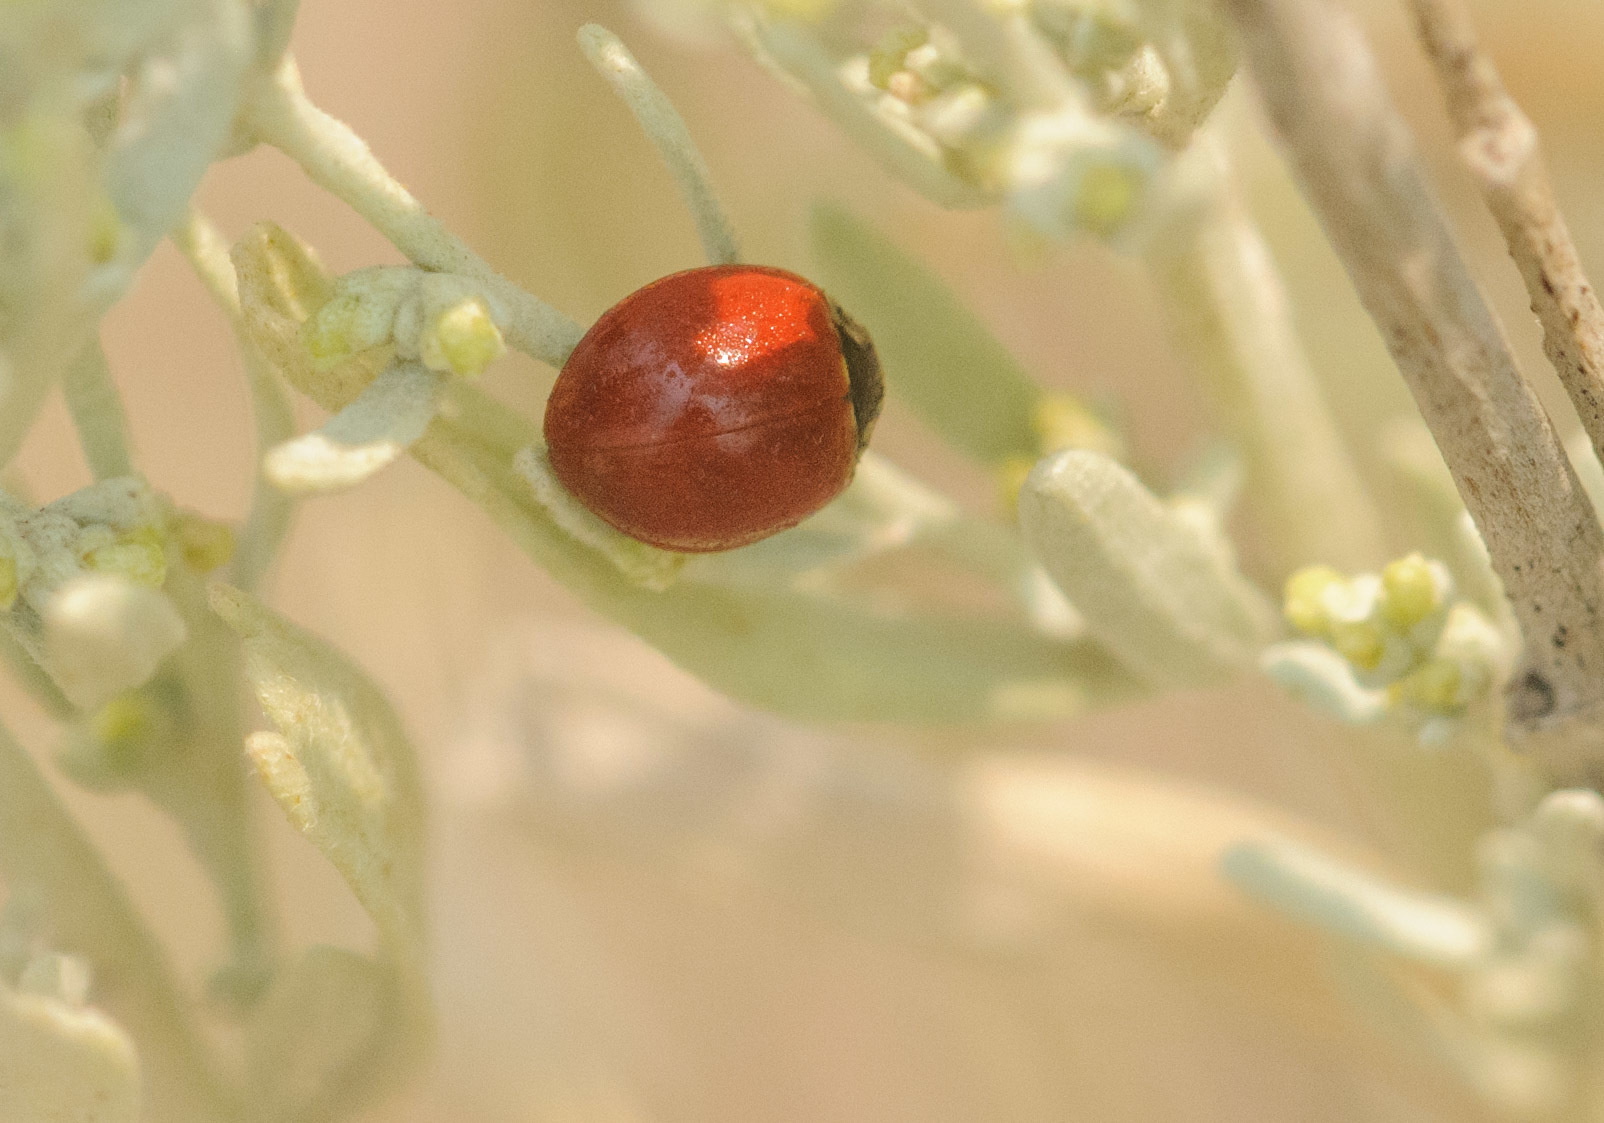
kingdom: Animalia
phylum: Arthropoda
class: Insecta
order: Coleoptera
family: Coccinellidae
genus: Cycloneda
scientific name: Cycloneda sanguinea
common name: Ladybird beetle
